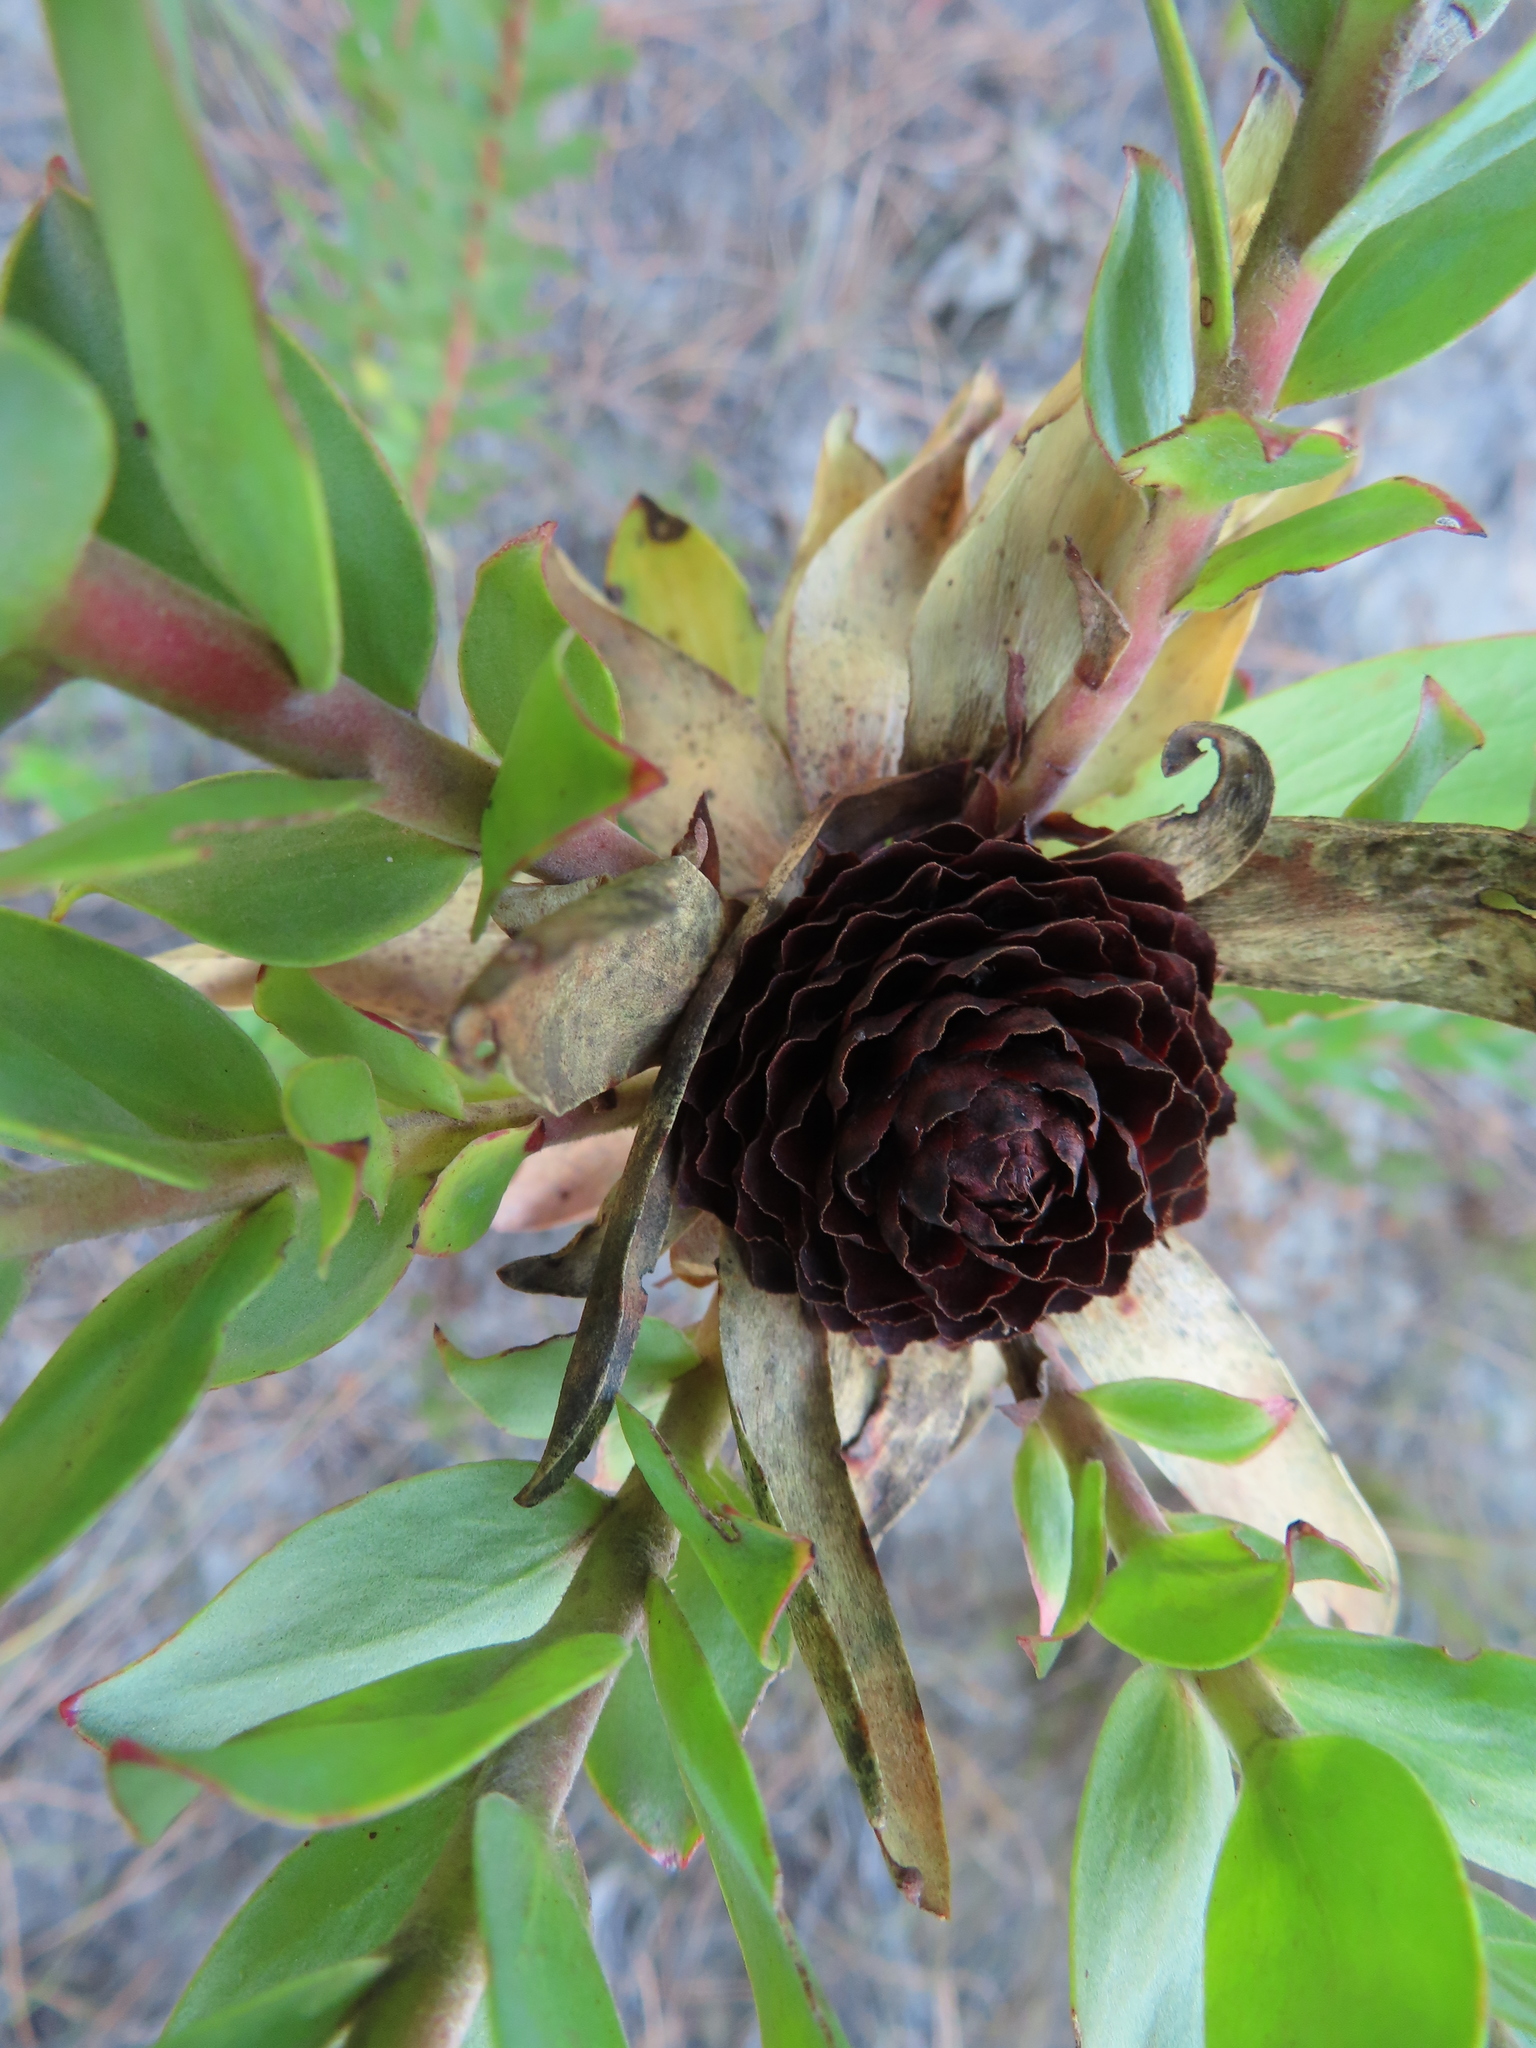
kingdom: Plantae
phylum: Tracheophyta
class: Magnoliopsida
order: Proteales
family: Proteaceae
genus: Leucadendron
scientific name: Leucadendron elimense
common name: Elim conebush
